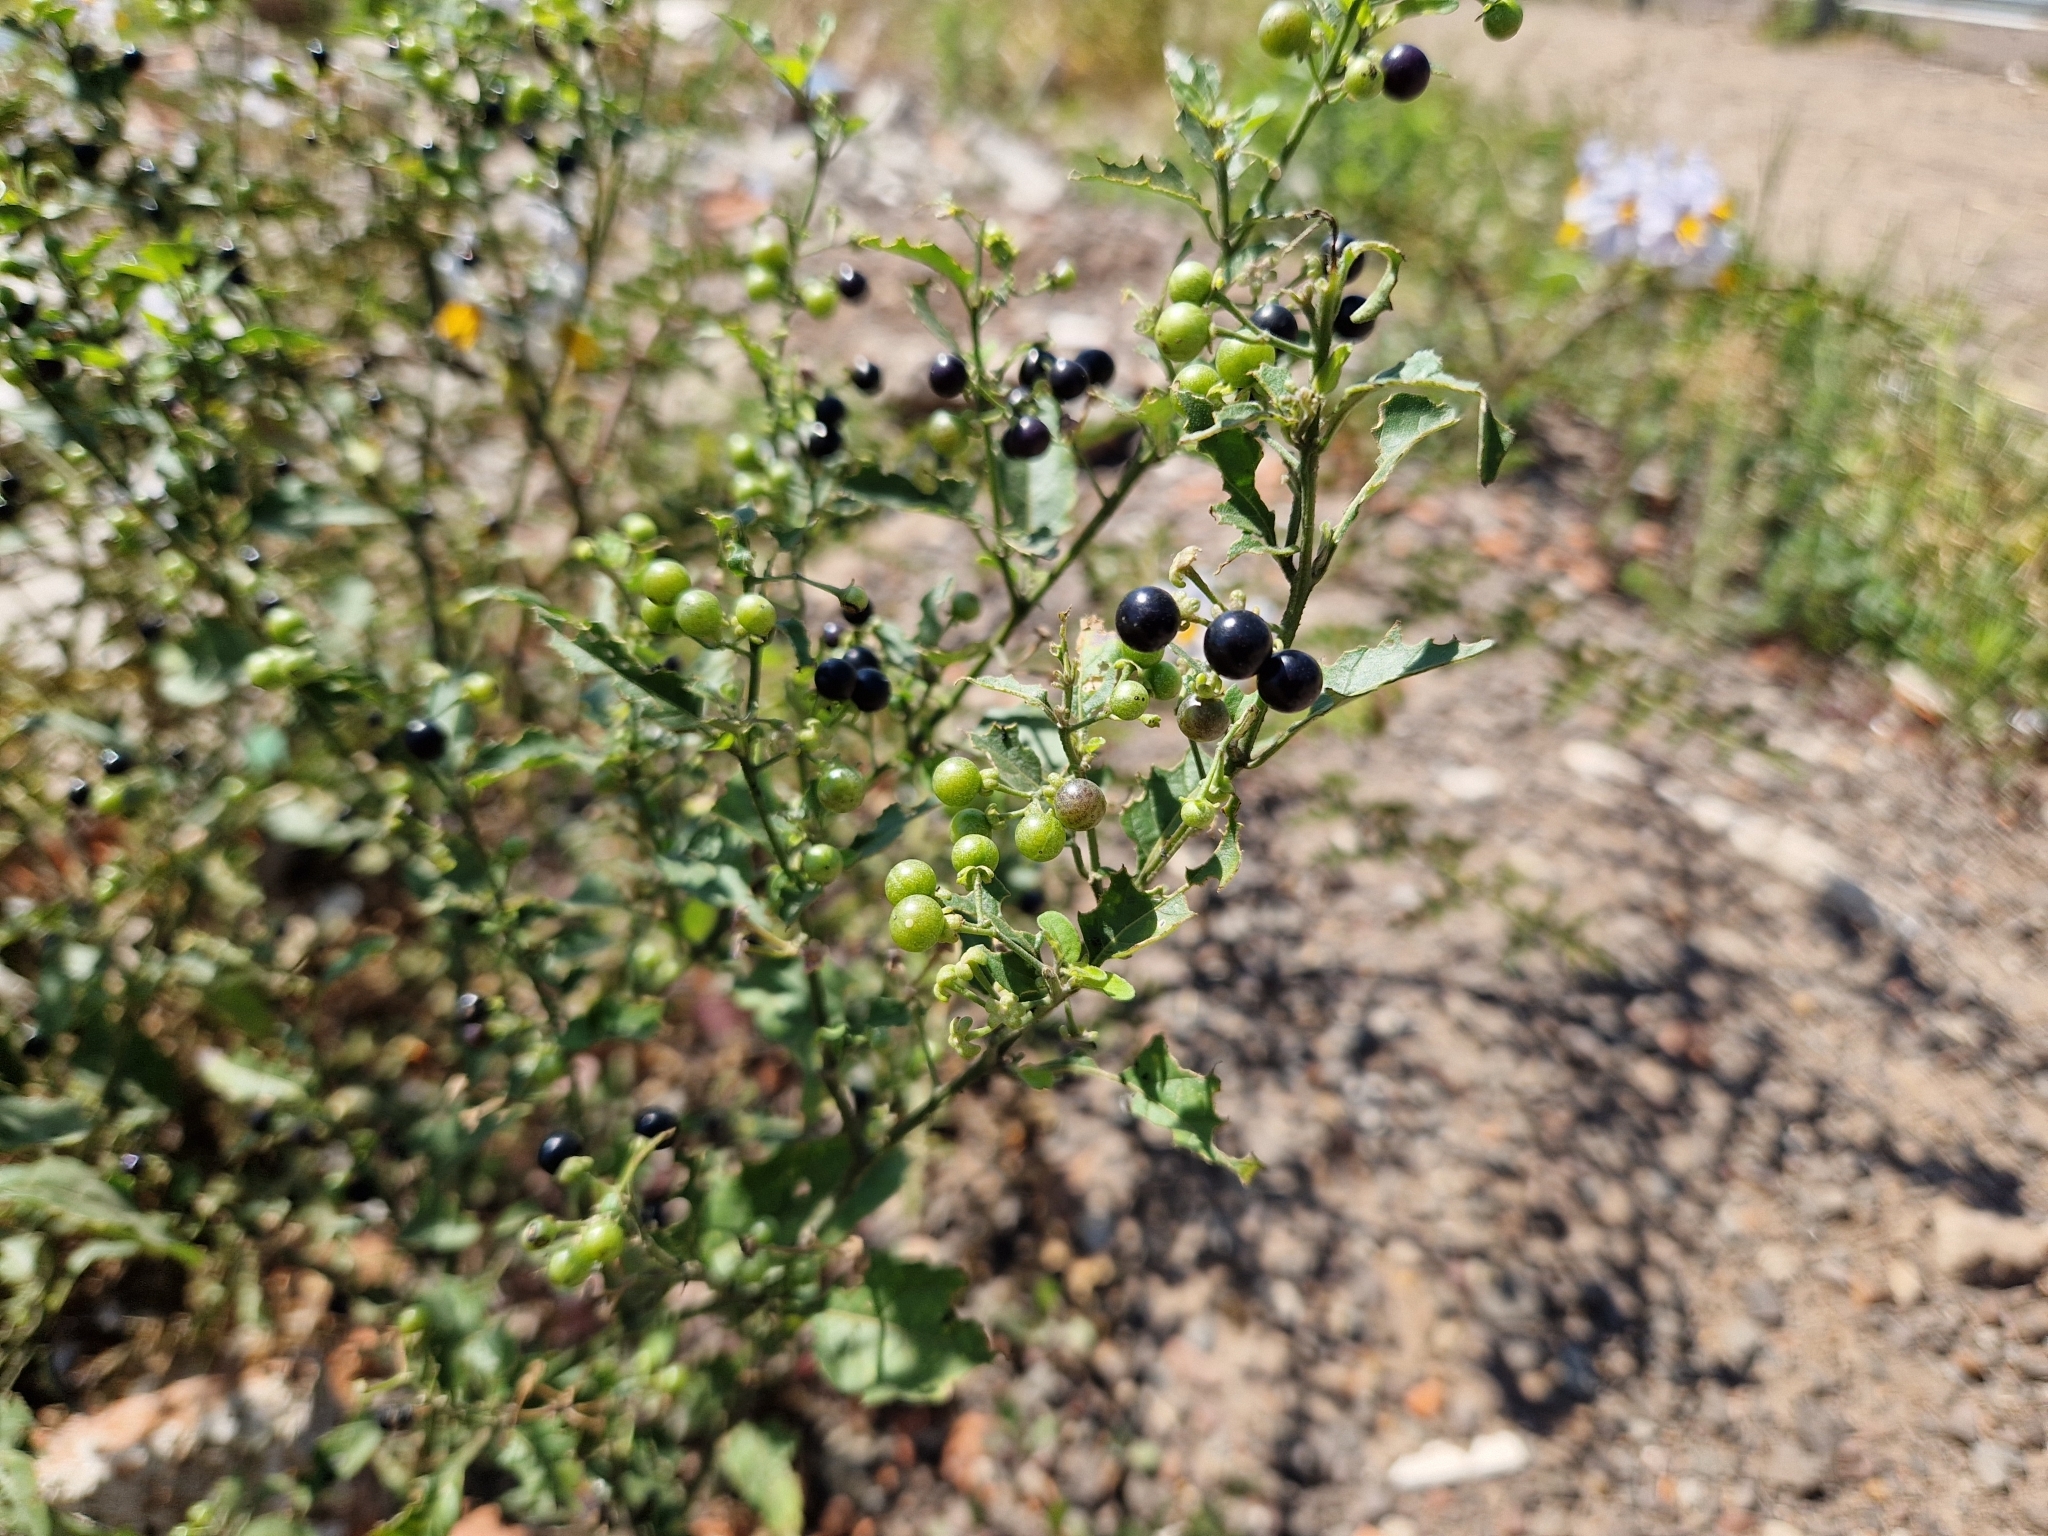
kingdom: Plantae
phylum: Tracheophyta
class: Magnoliopsida
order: Solanales
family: Solanaceae
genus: Solanum
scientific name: Solanum americanum
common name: American black nightshade
